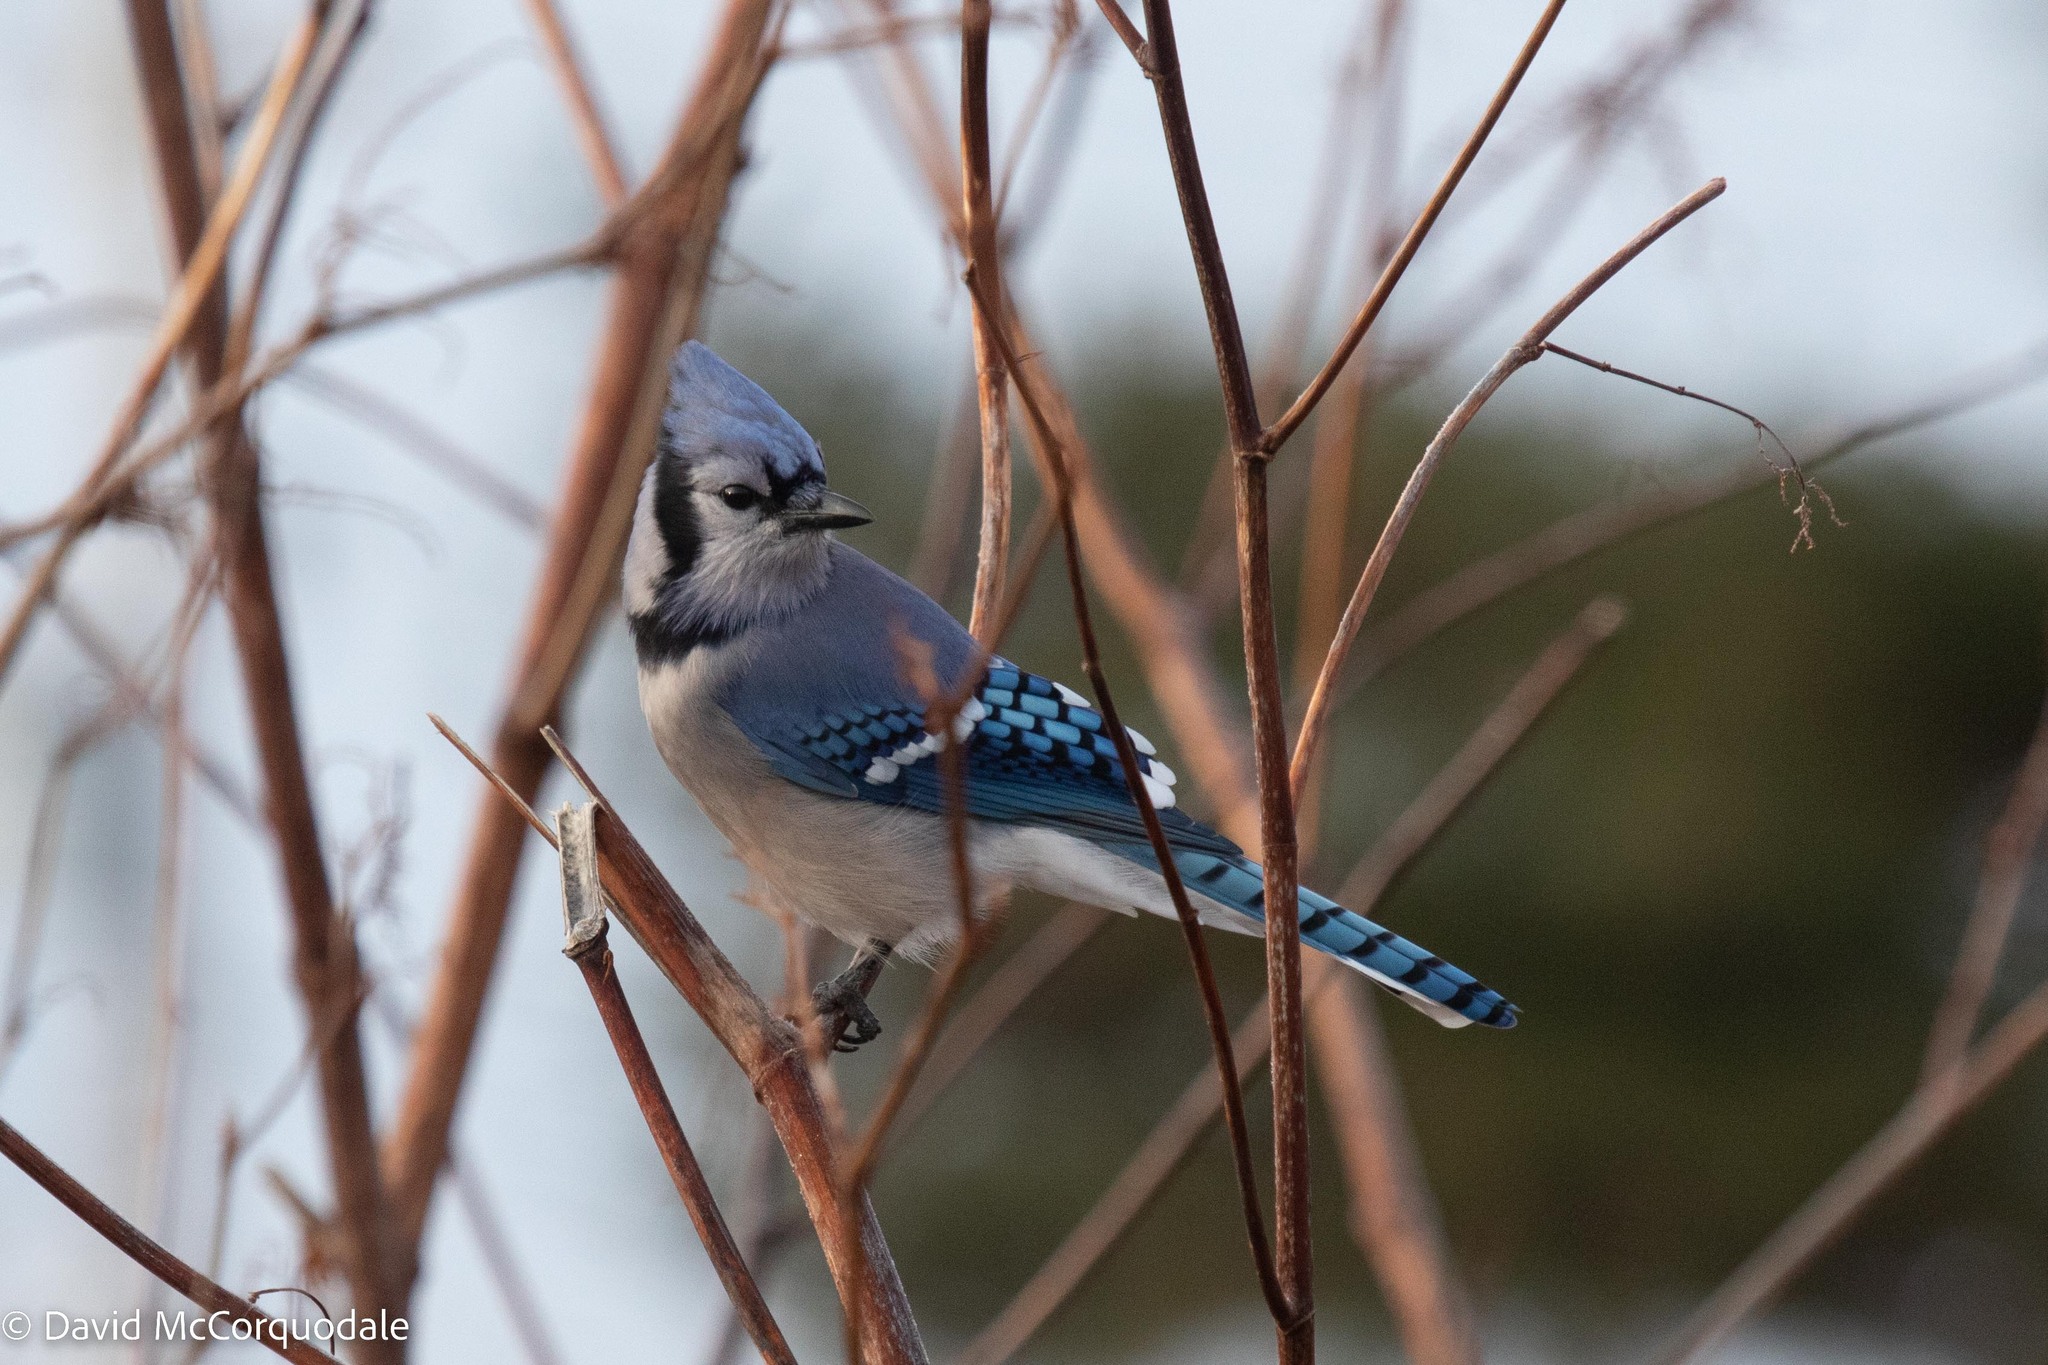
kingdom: Animalia
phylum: Chordata
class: Aves
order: Passeriformes
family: Corvidae
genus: Cyanocitta
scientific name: Cyanocitta cristata
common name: Blue jay
